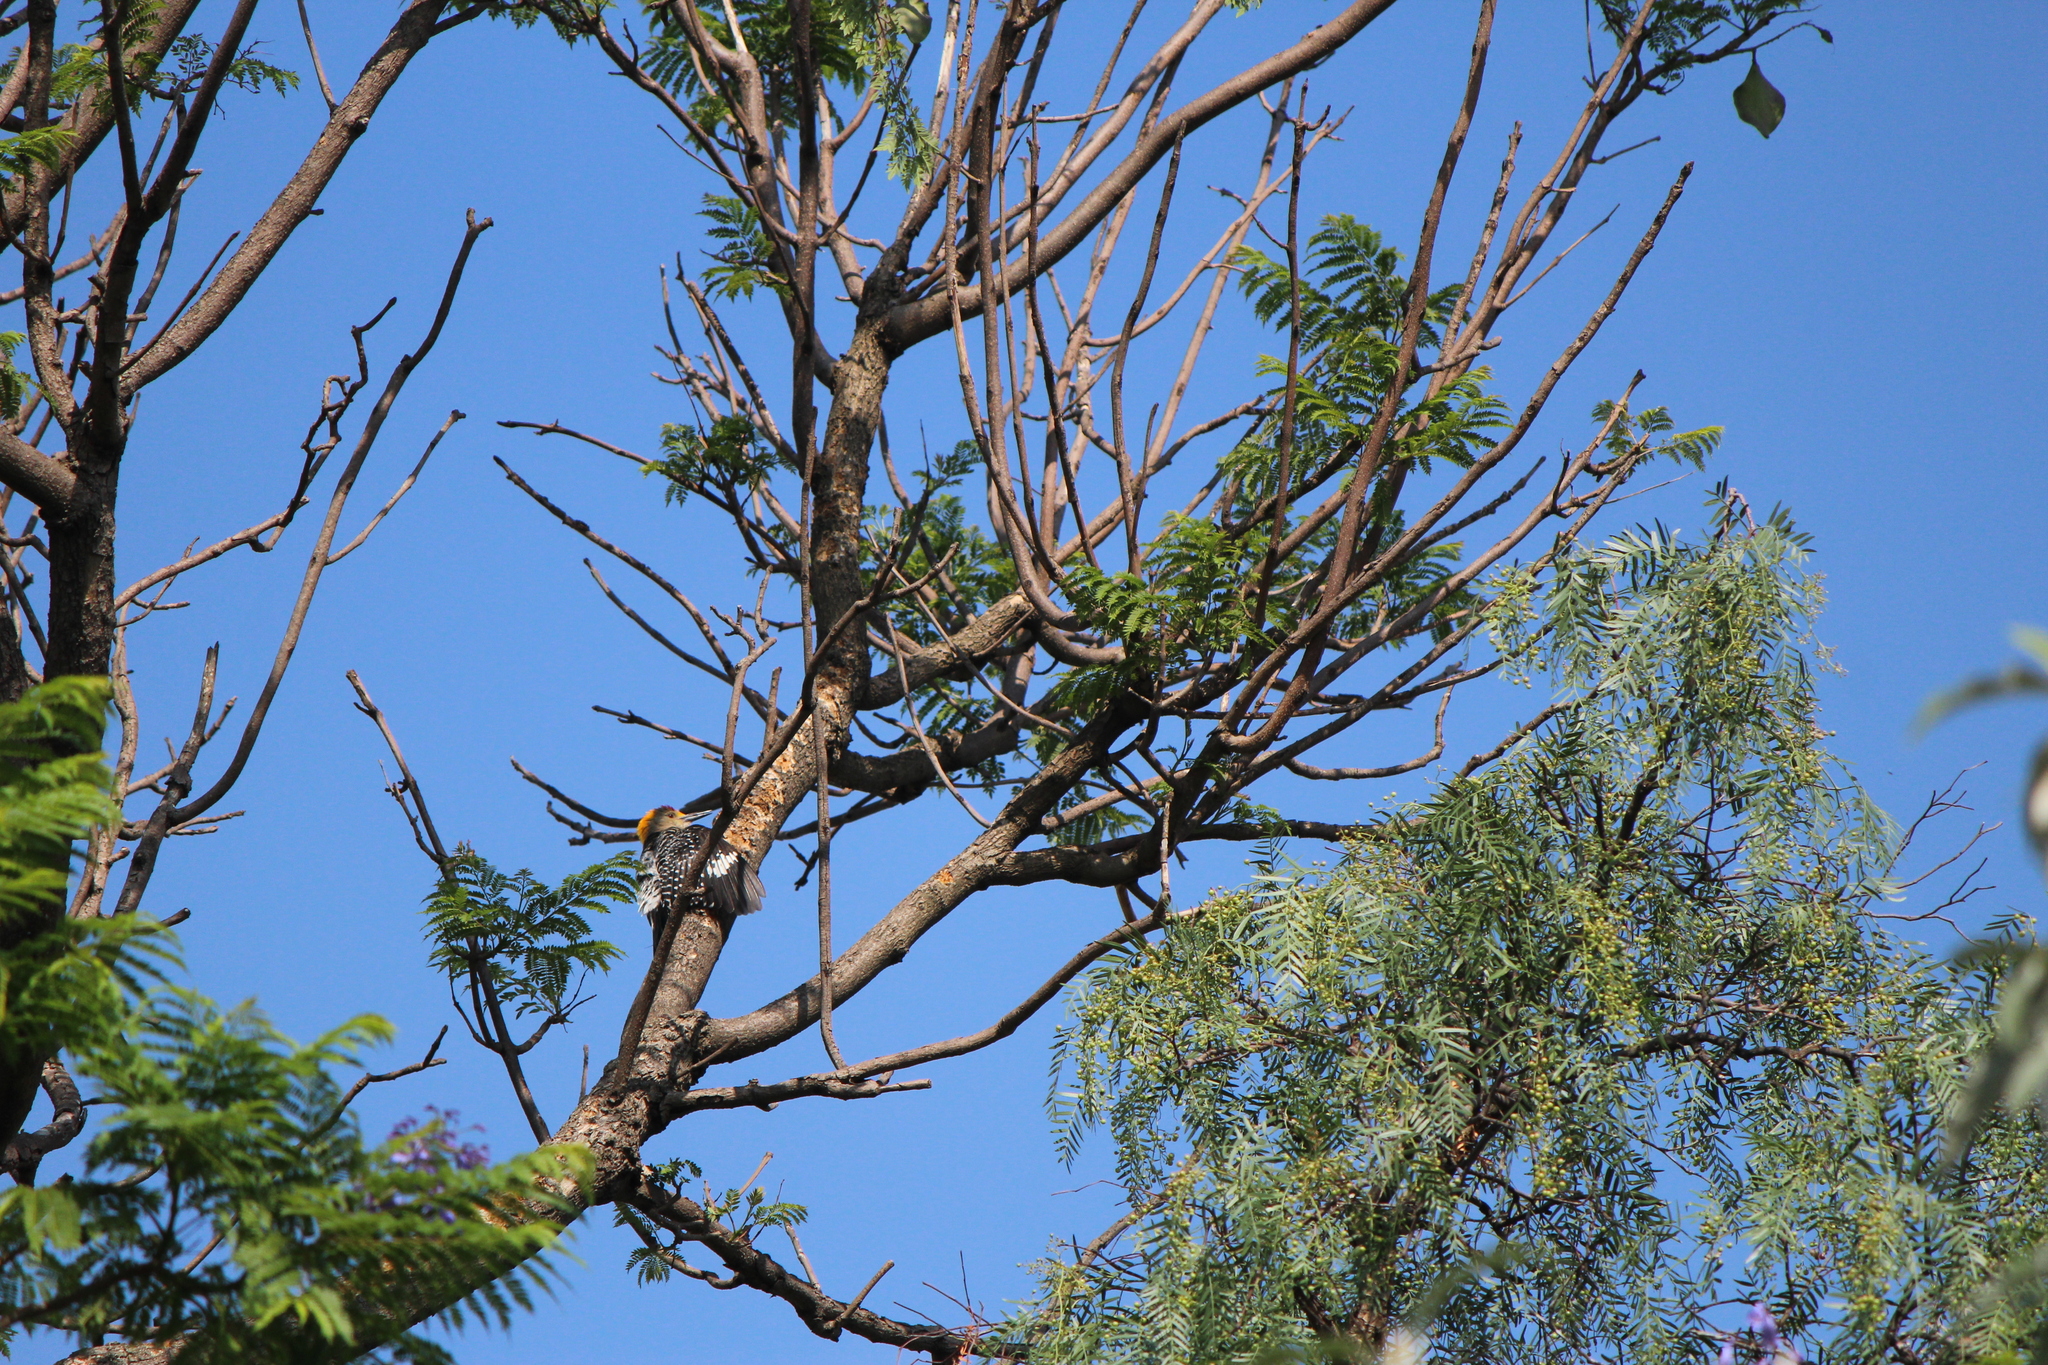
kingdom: Animalia
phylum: Chordata
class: Aves
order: Piciformes
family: Picidae
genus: Melanerpes
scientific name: Melanerpes aurifrons
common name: Golden-fronted woodpecker
